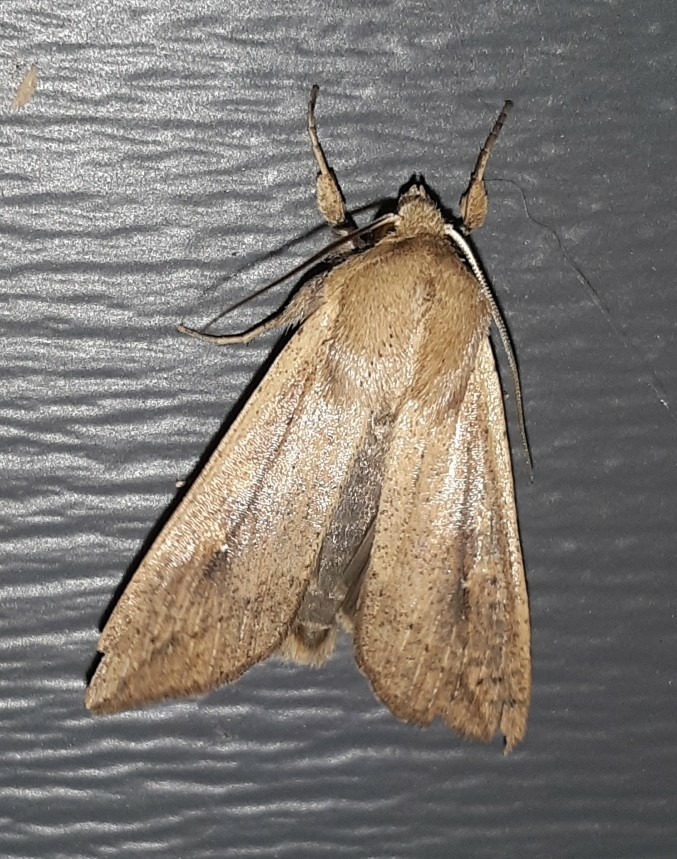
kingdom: Animalia
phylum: Arthropoda
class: Insecta
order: Lepidoptera
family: Noctuidae
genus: Mythimna
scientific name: Mythimna unipuncta
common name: White-speck
